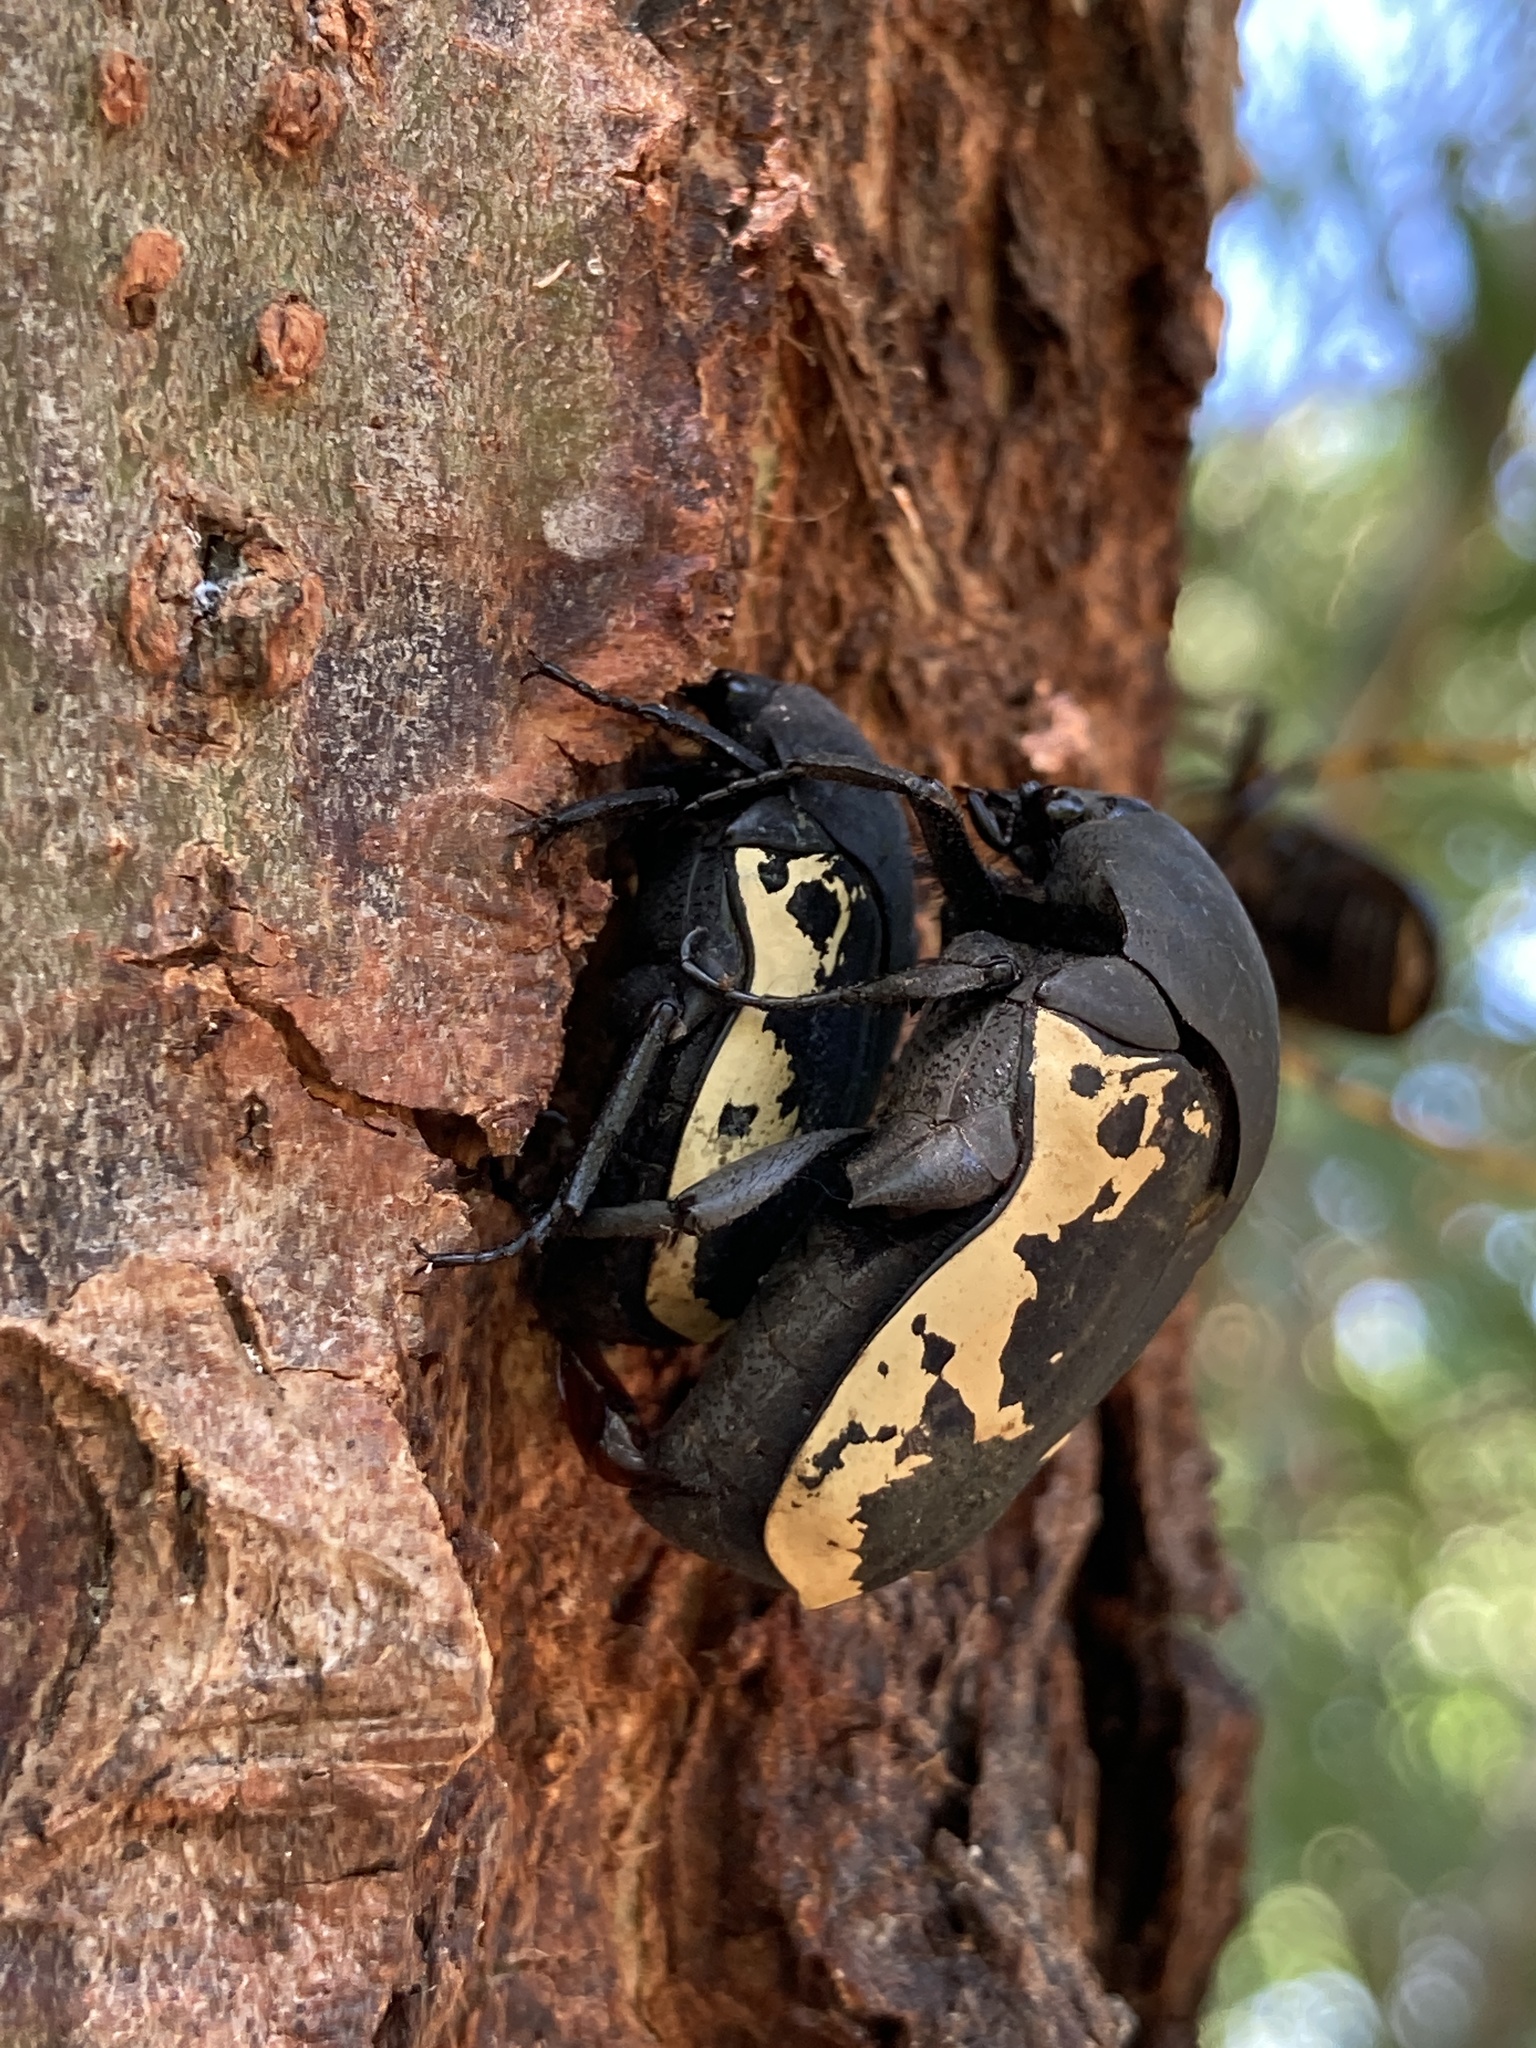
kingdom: Animalia
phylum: Arthropoda
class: Insecta
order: Coleoptera
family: Scarabaeidae
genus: Gymnetis
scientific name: Gymnetis pudibunda
